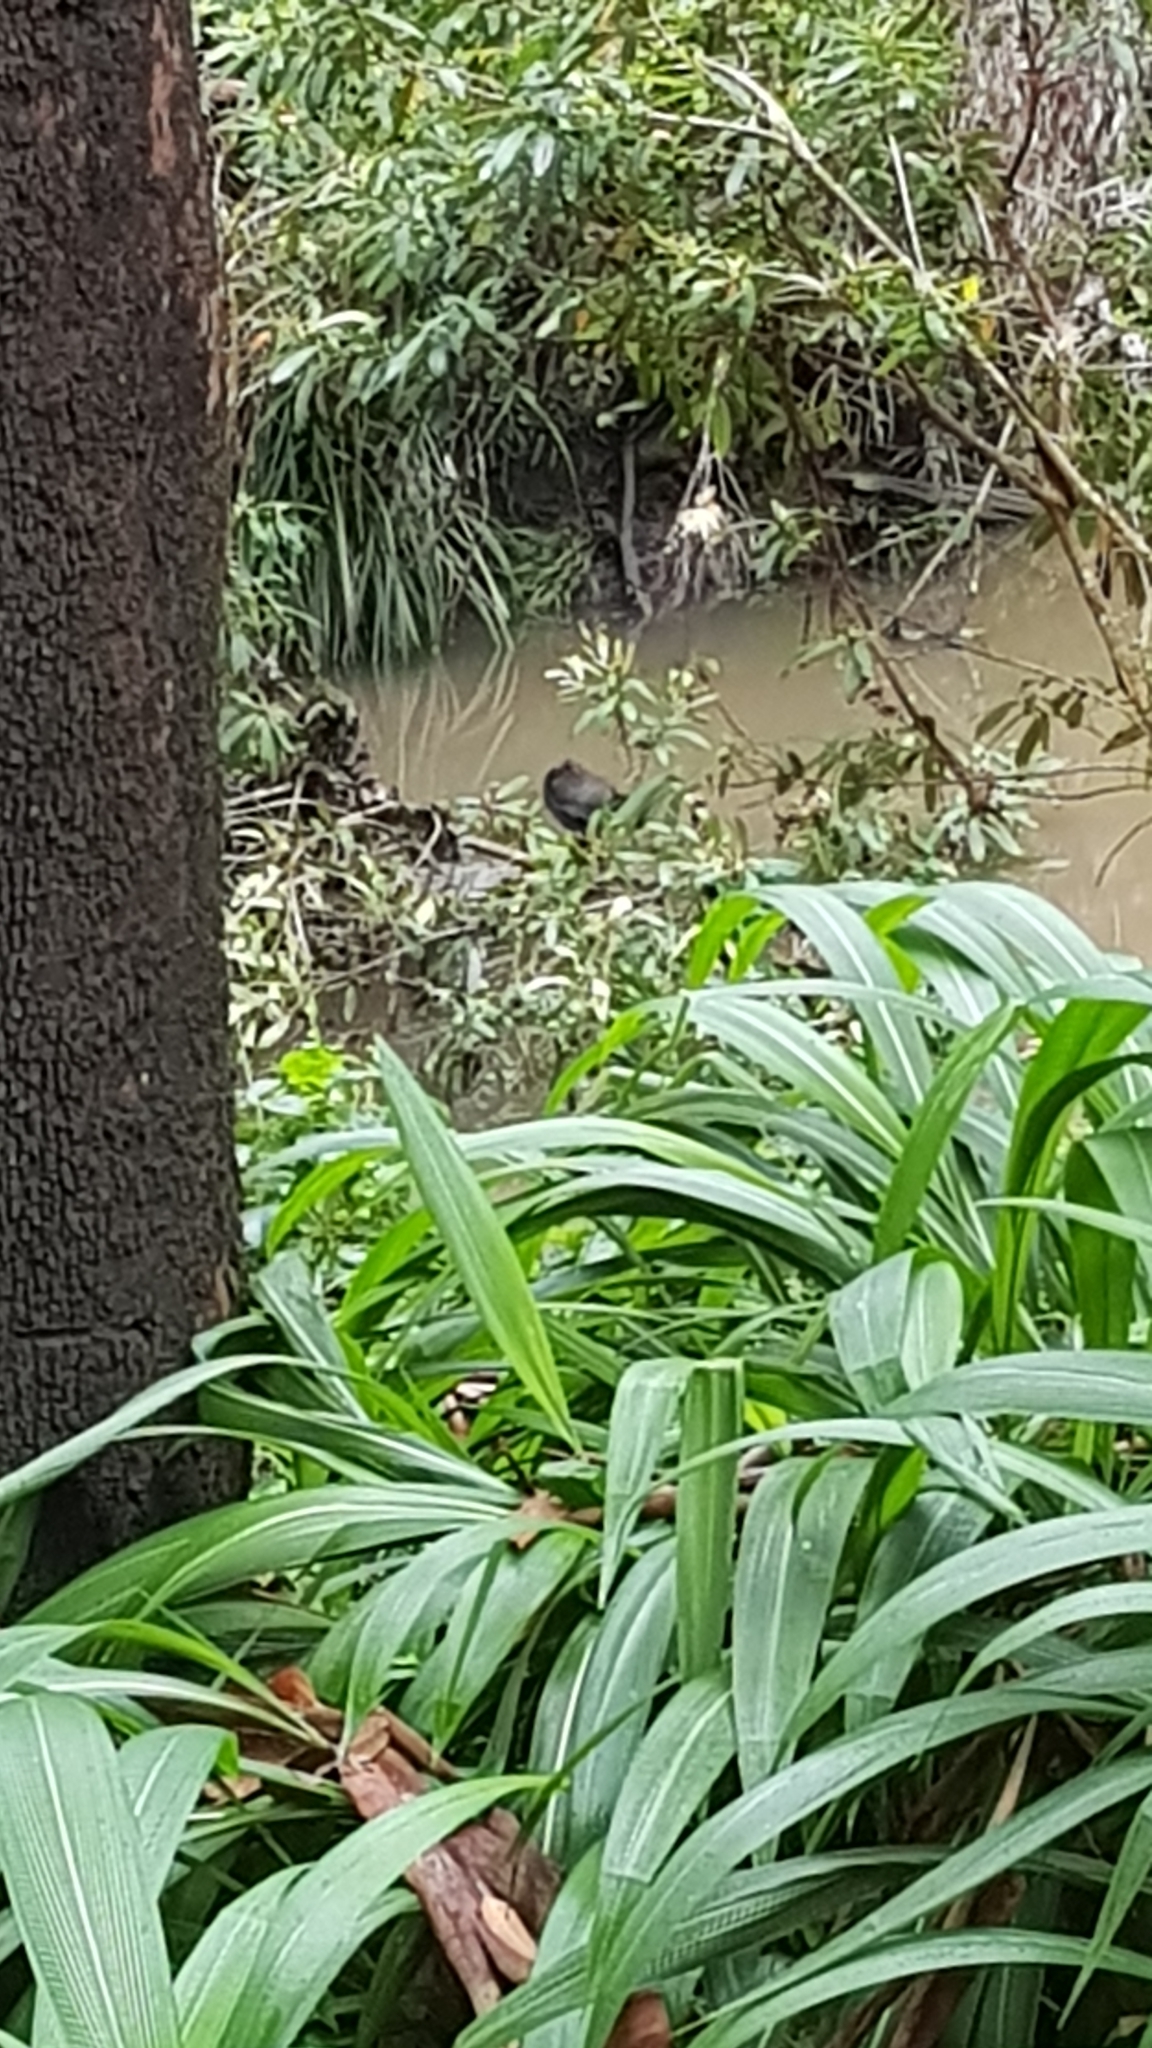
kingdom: Animalia
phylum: Chordata
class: Aves
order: Gruiformes
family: Rallidae
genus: Gallinula
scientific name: Gallinula tenebrosa
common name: Dusky moorhen
